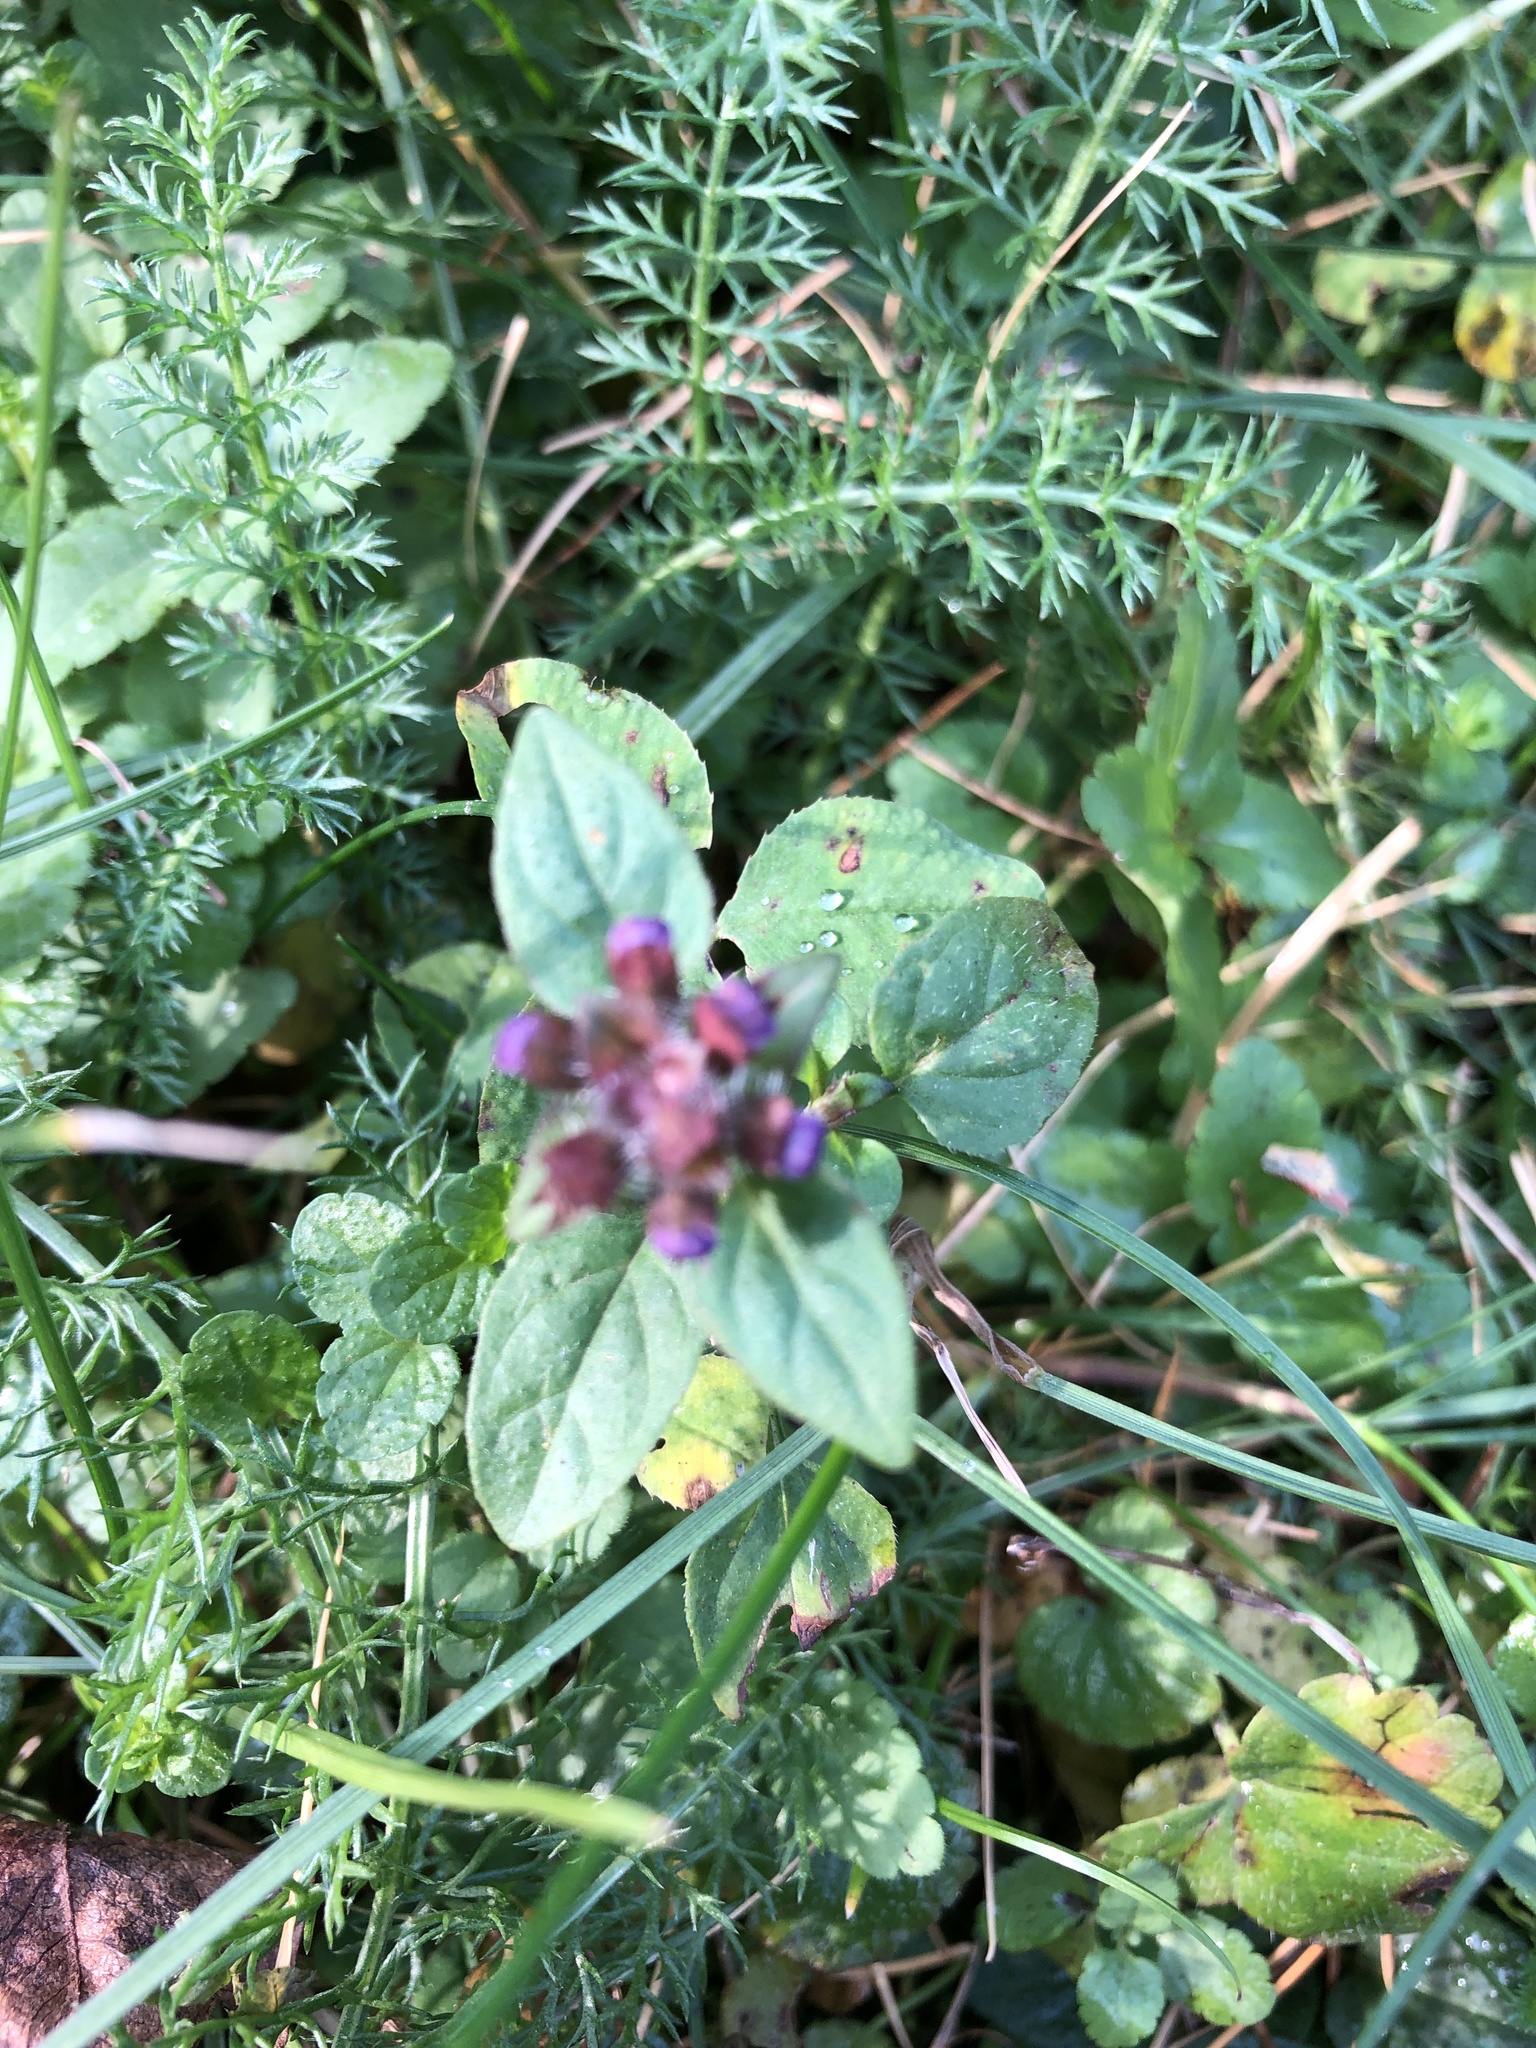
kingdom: Plantae
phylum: Tracheophyta
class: Magnoliopsida
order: Lamiales
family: Lamiaceae
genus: Prunella
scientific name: Prunella vulgaris
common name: Heal-all
